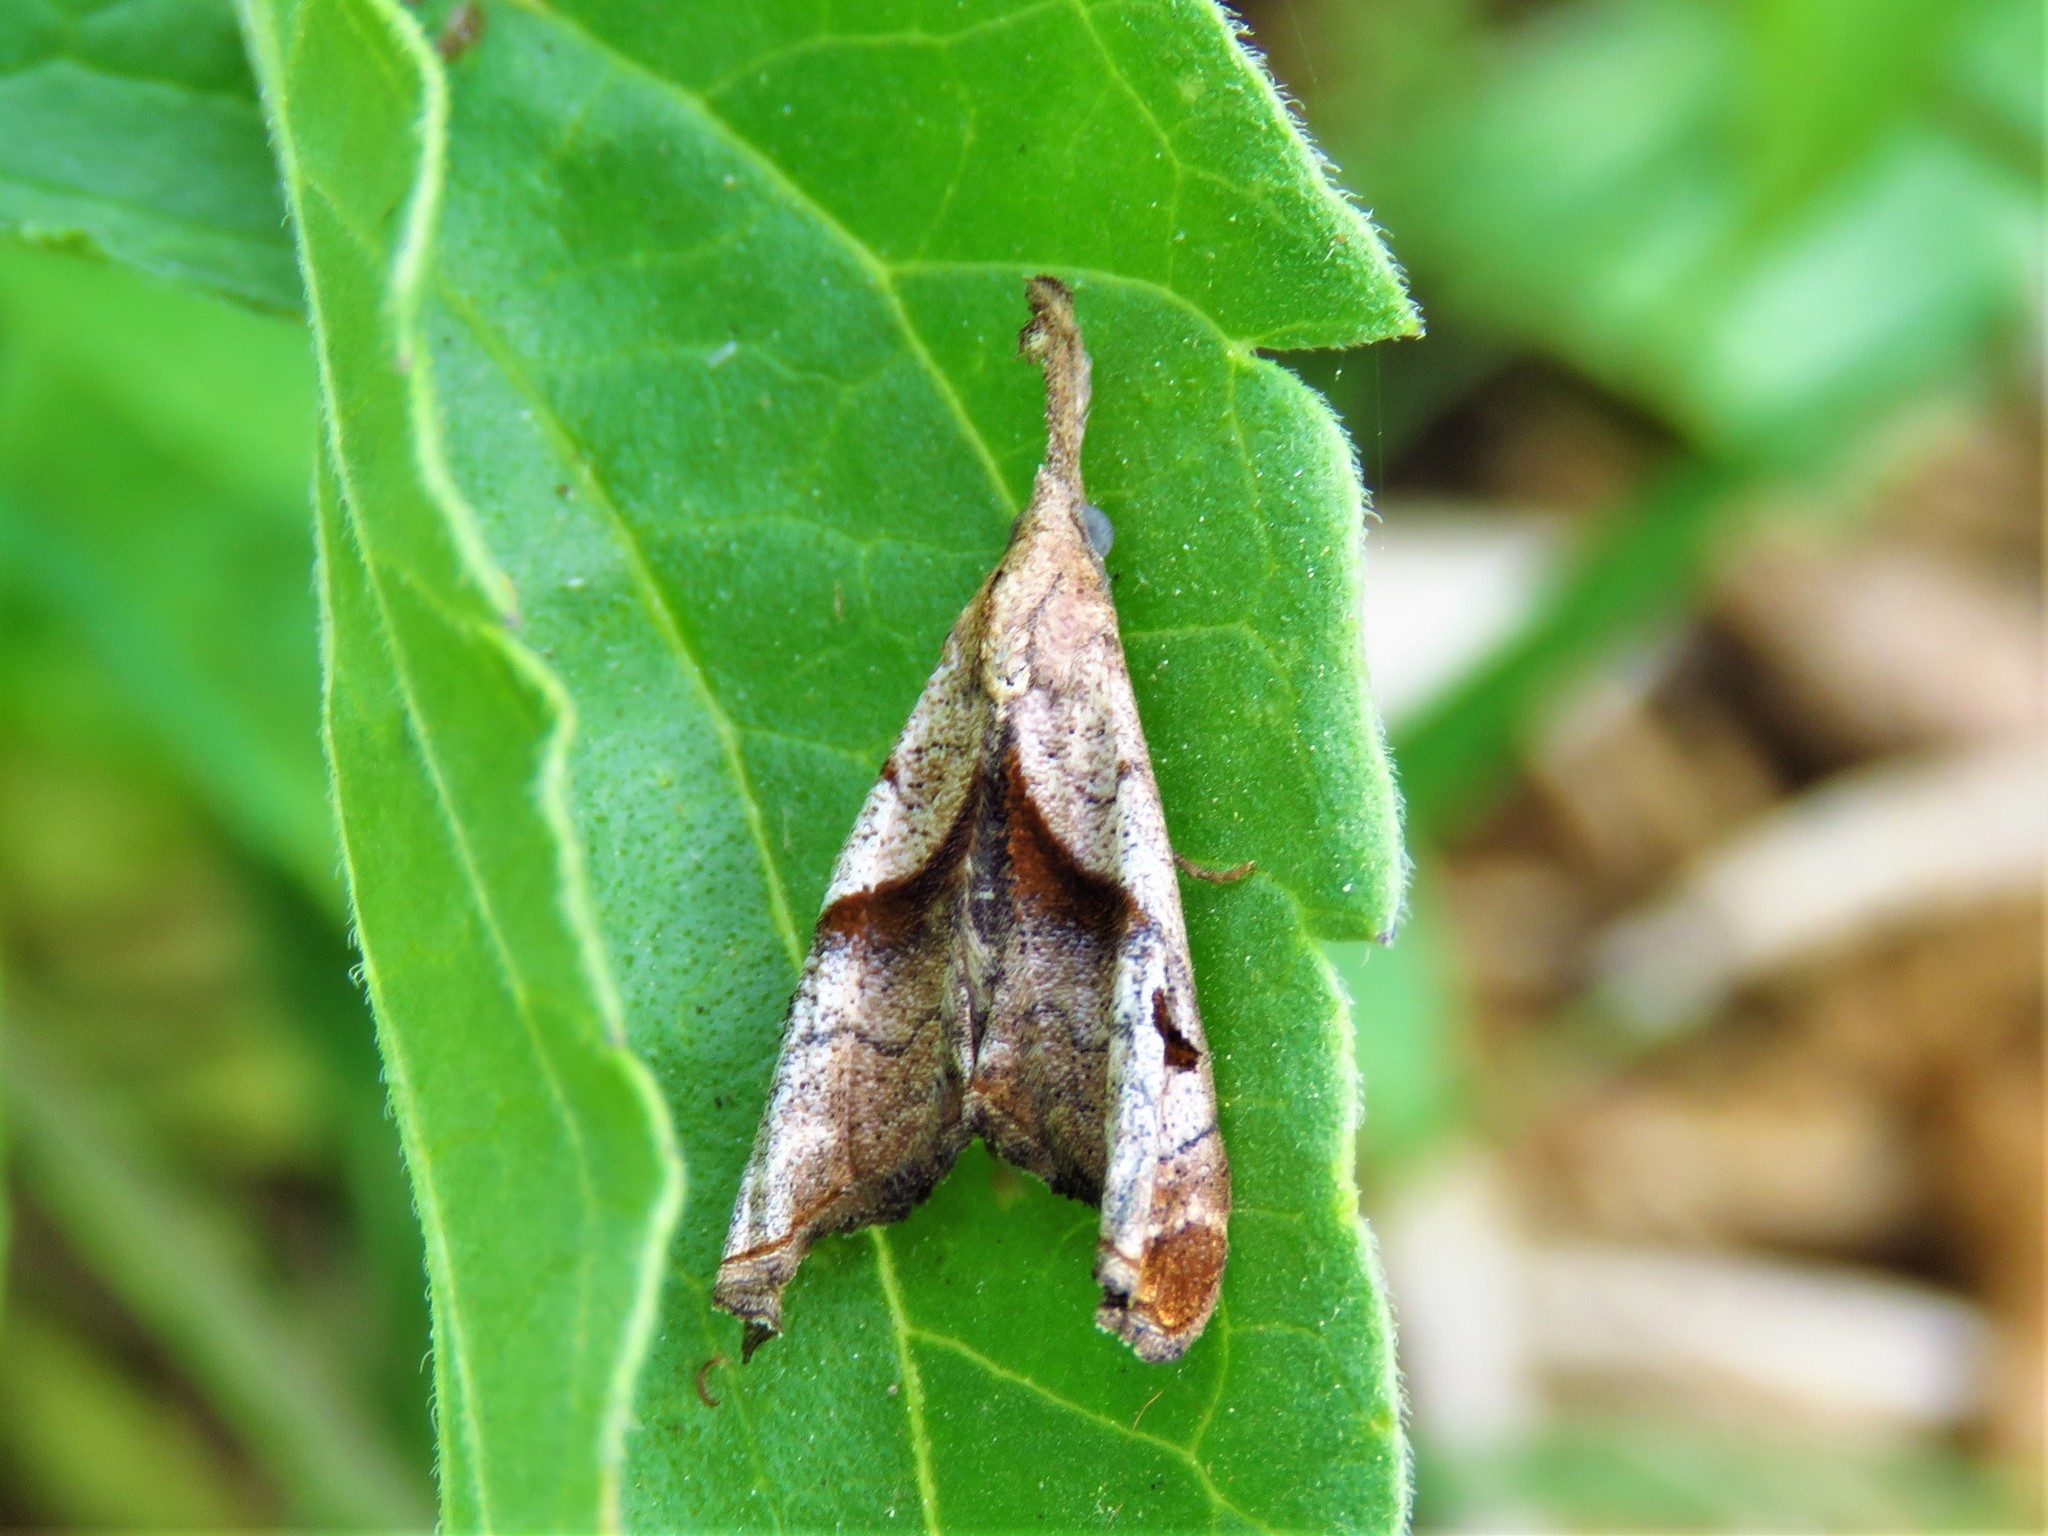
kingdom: Animalia
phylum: Arthropoda
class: Insecta
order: Lepidoptera
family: Erebidae
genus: Palthis
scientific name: Palthis angulalis
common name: Dark-spotted palthis moth
